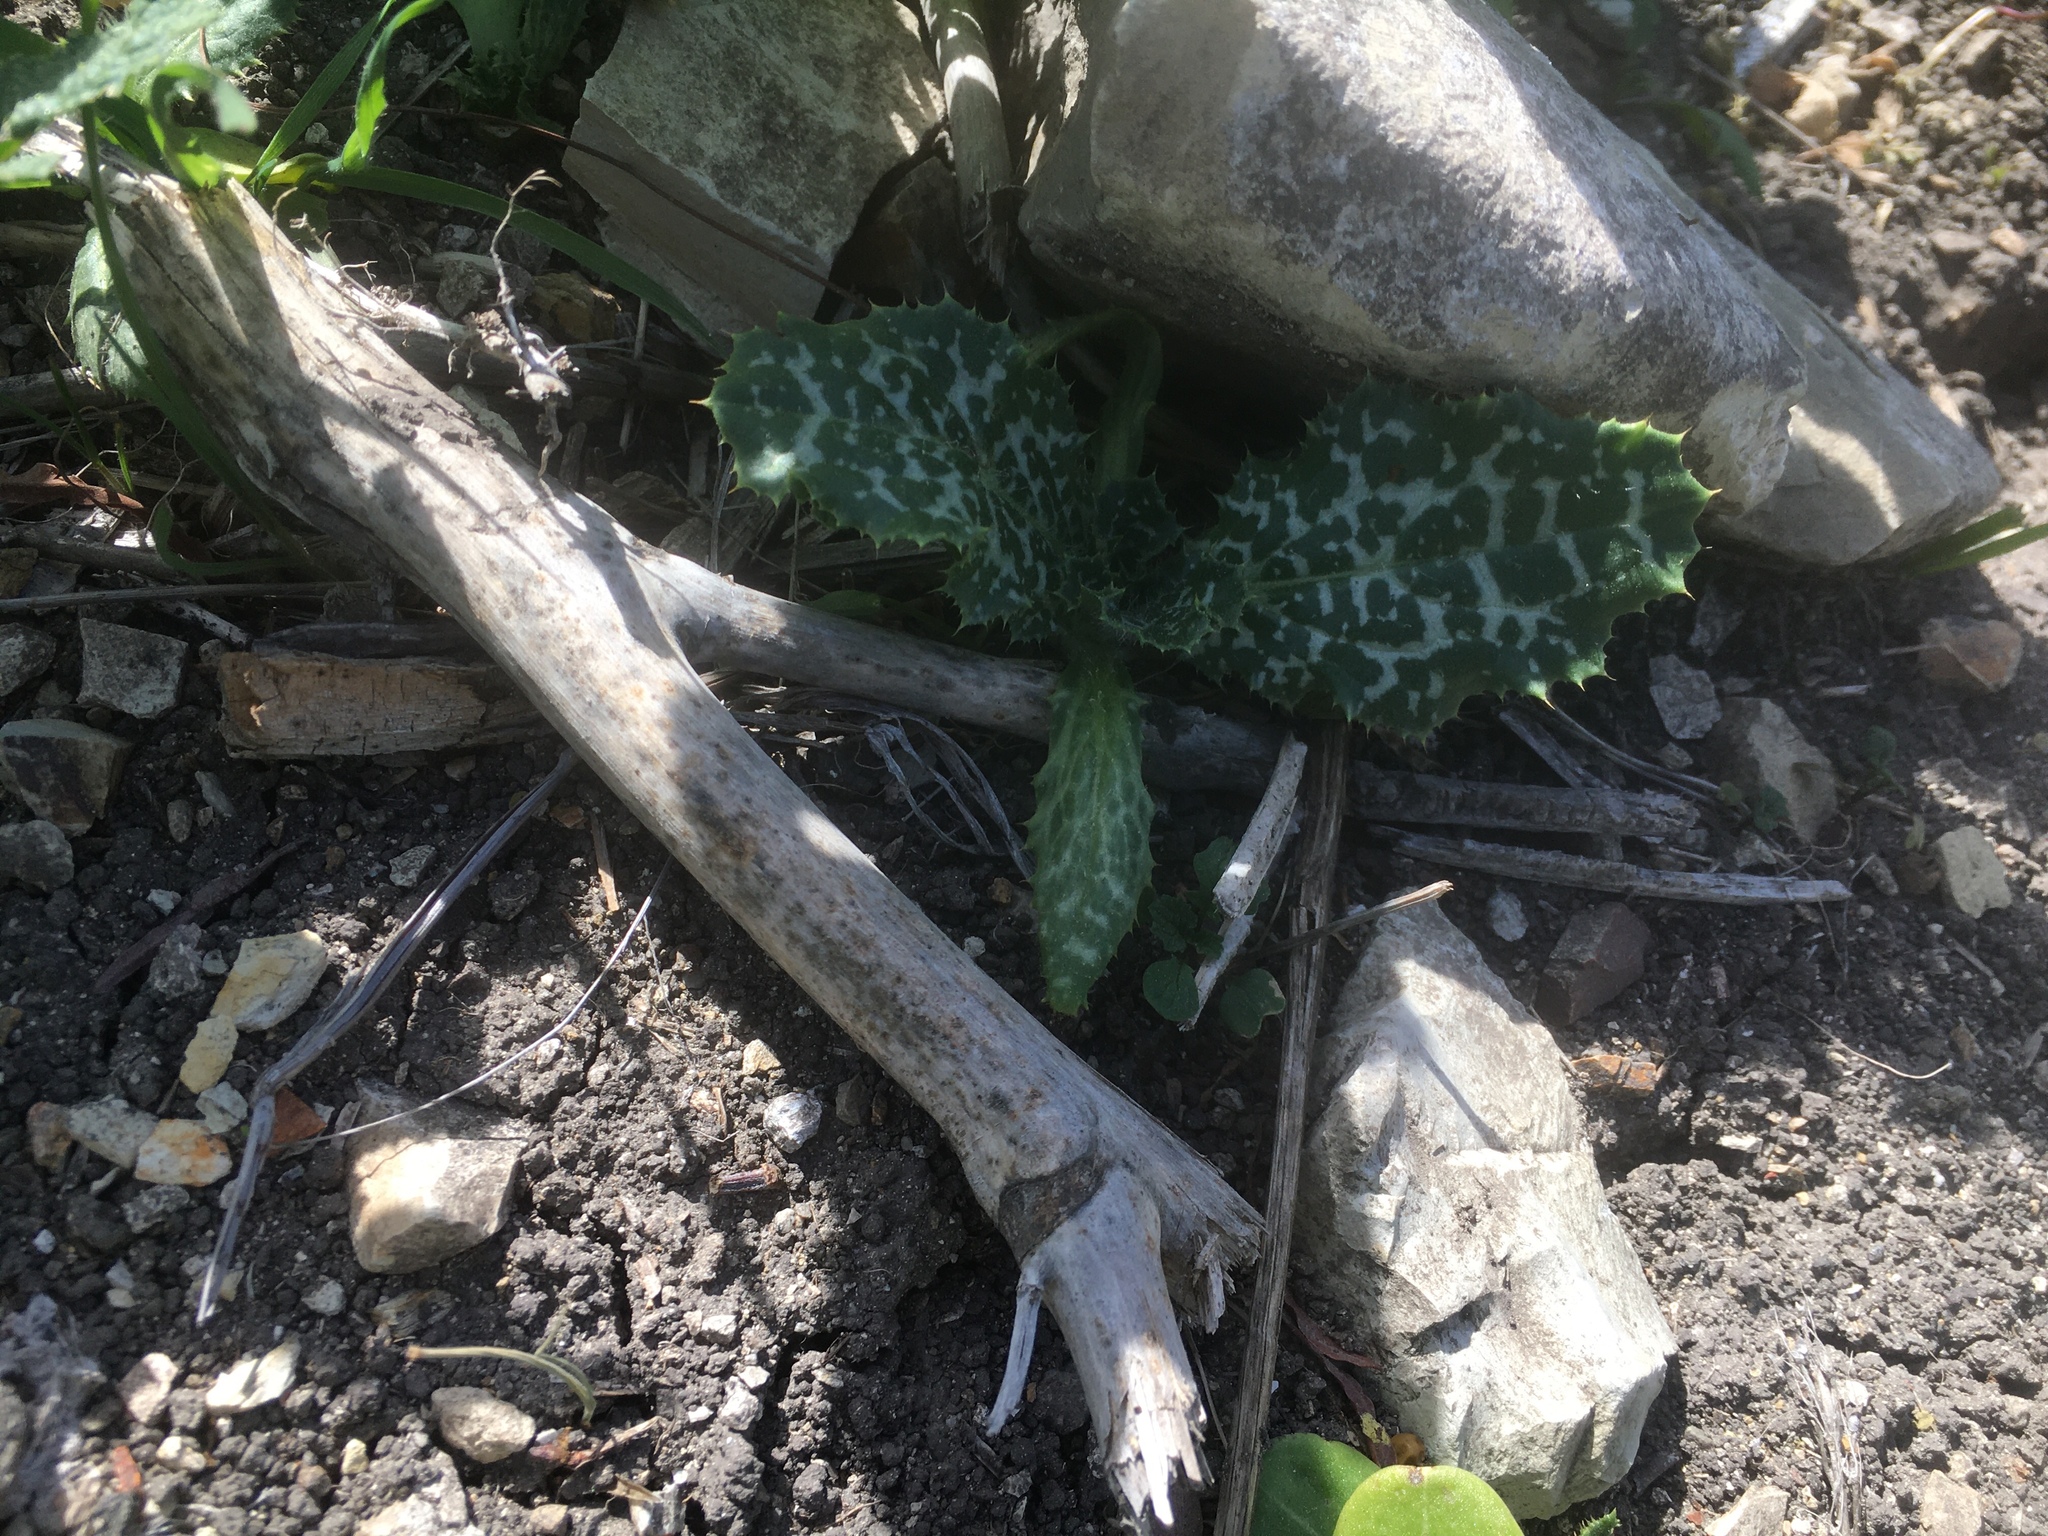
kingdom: Plantae
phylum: Tracheophyta
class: Magnoliopsida
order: Asterales
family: Asteraceae
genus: Silybum
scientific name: Silybum marianum
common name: Milk thistle
